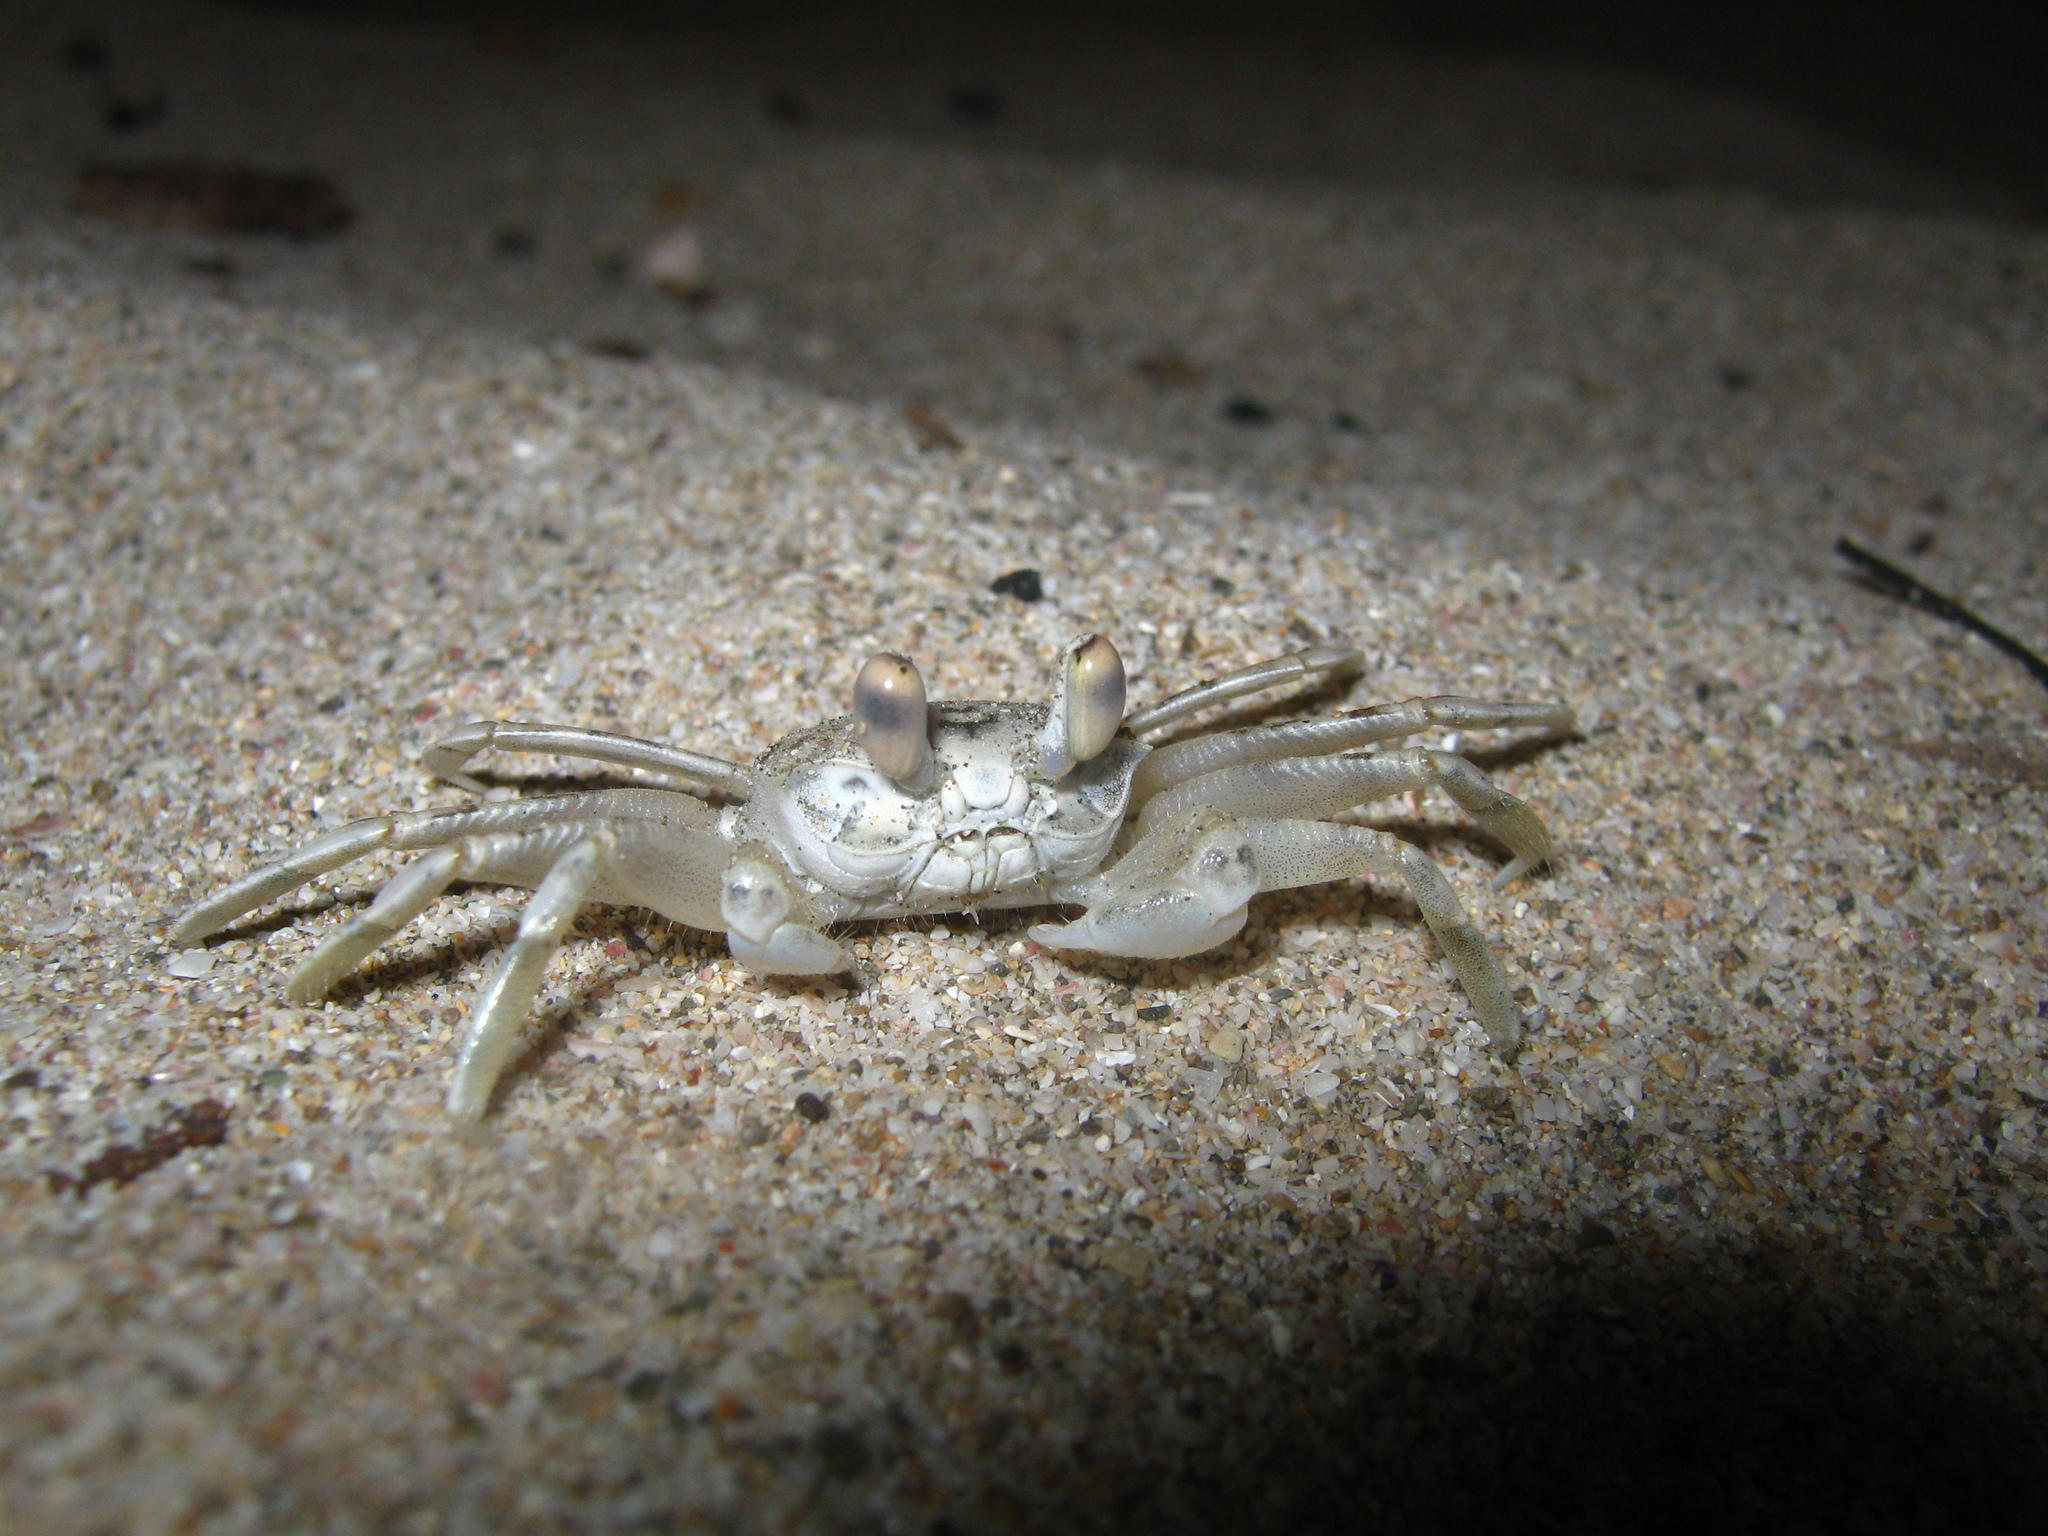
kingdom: Animalia
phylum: Arthropoda
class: Malacostraca
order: Decapoda
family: Ocypodidae
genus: Ocypode
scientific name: Ocypode occidentalis
